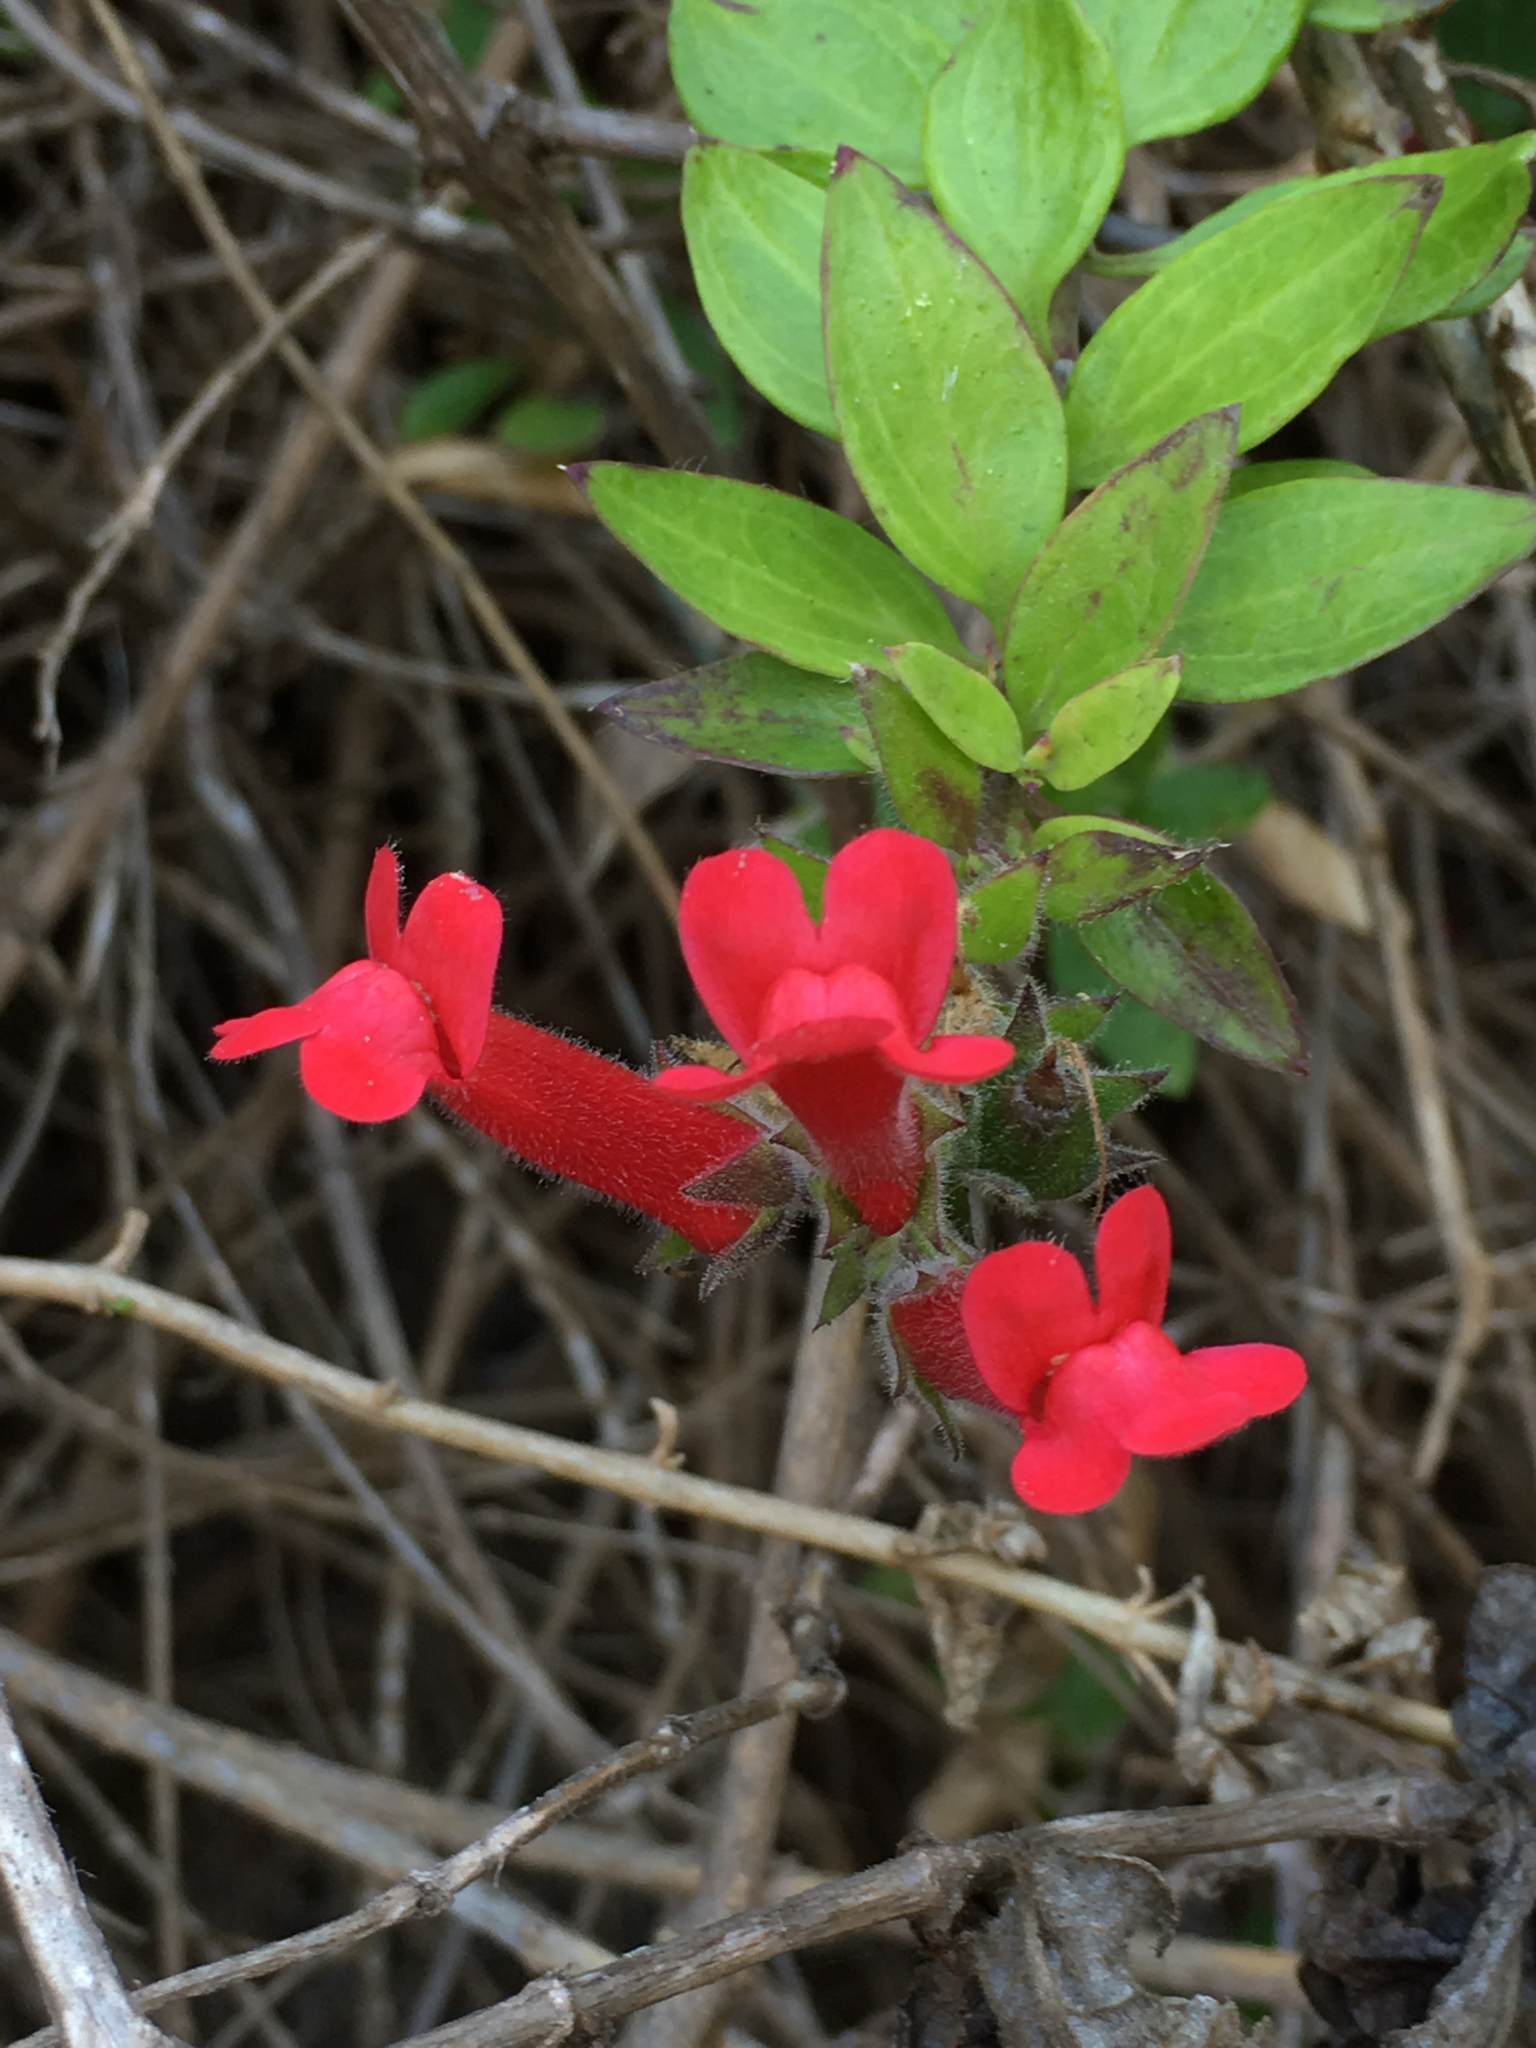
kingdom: Plantae
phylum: Tracheophyta
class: Magnoliopsida
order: Lamiales
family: Plantaginaceae
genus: Gambelia
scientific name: Gambelia speciosa
